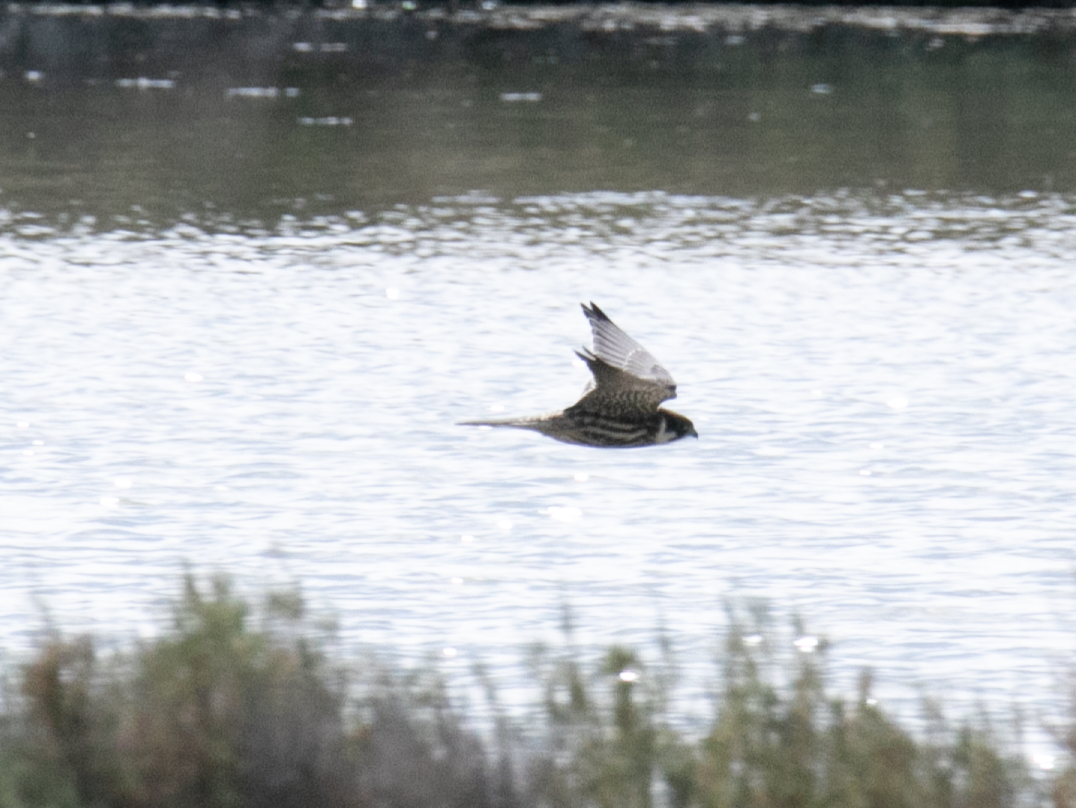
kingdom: Animalia
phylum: Chordata
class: Aves
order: Falconiformes
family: Falconidae
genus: Falco
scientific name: Falco subbuteo
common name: Eurasian hobby
